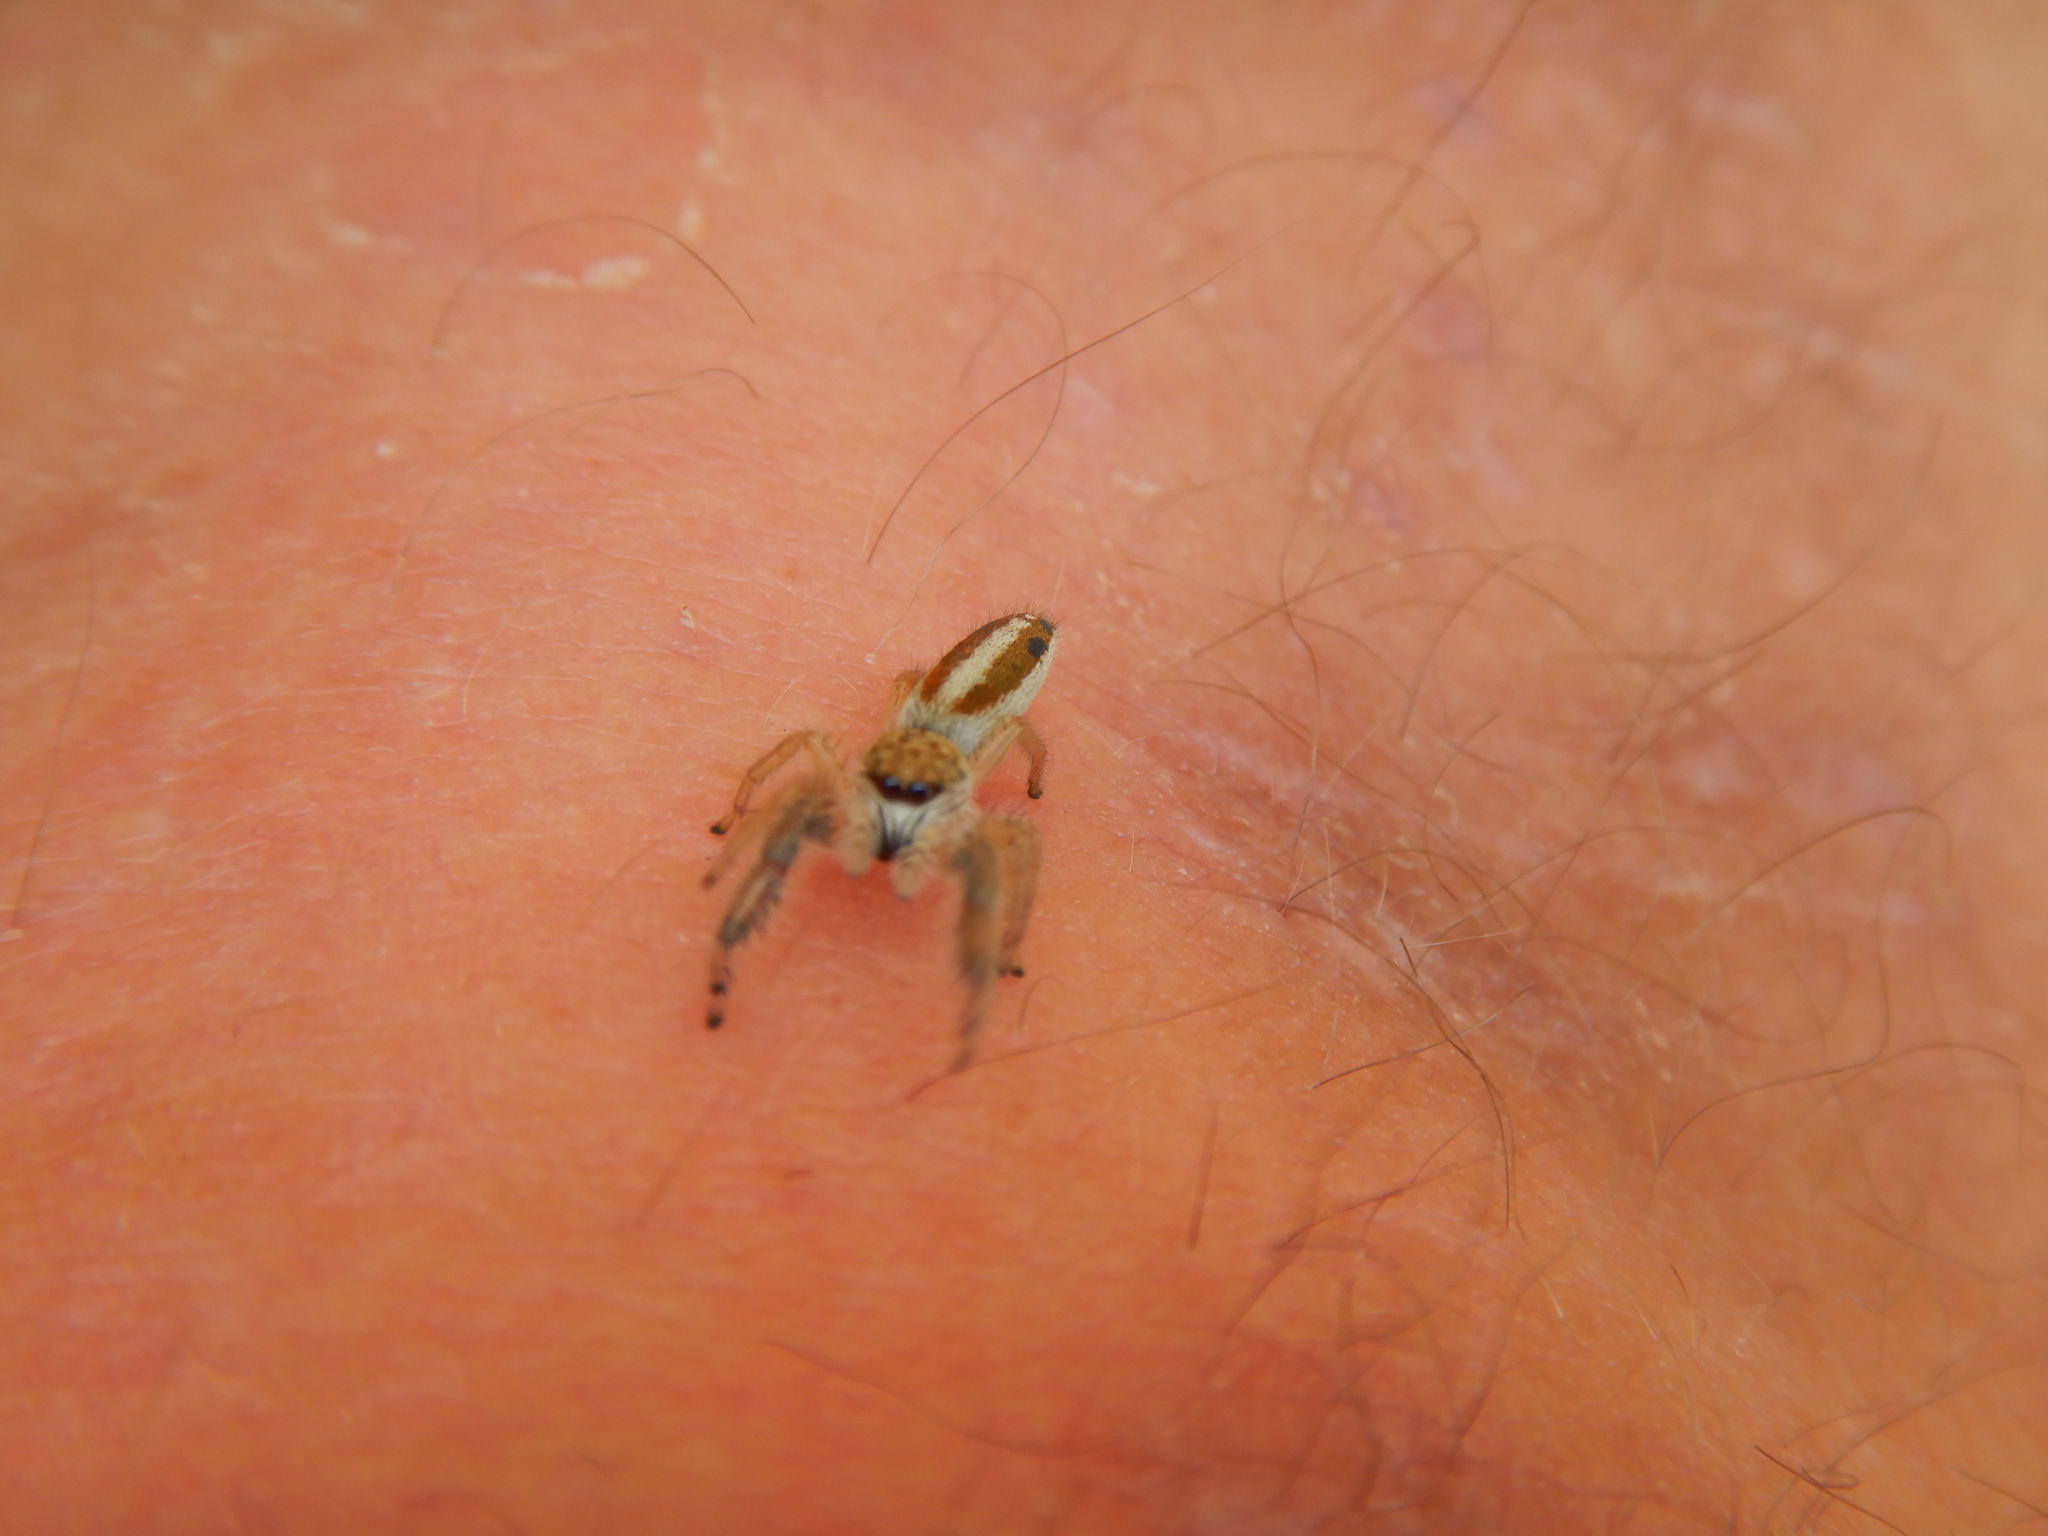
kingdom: Animalia
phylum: Arthropoda
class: Arachnida
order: Araneae
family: Salticidae
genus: Mendoza
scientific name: Mendoza canestrinii
